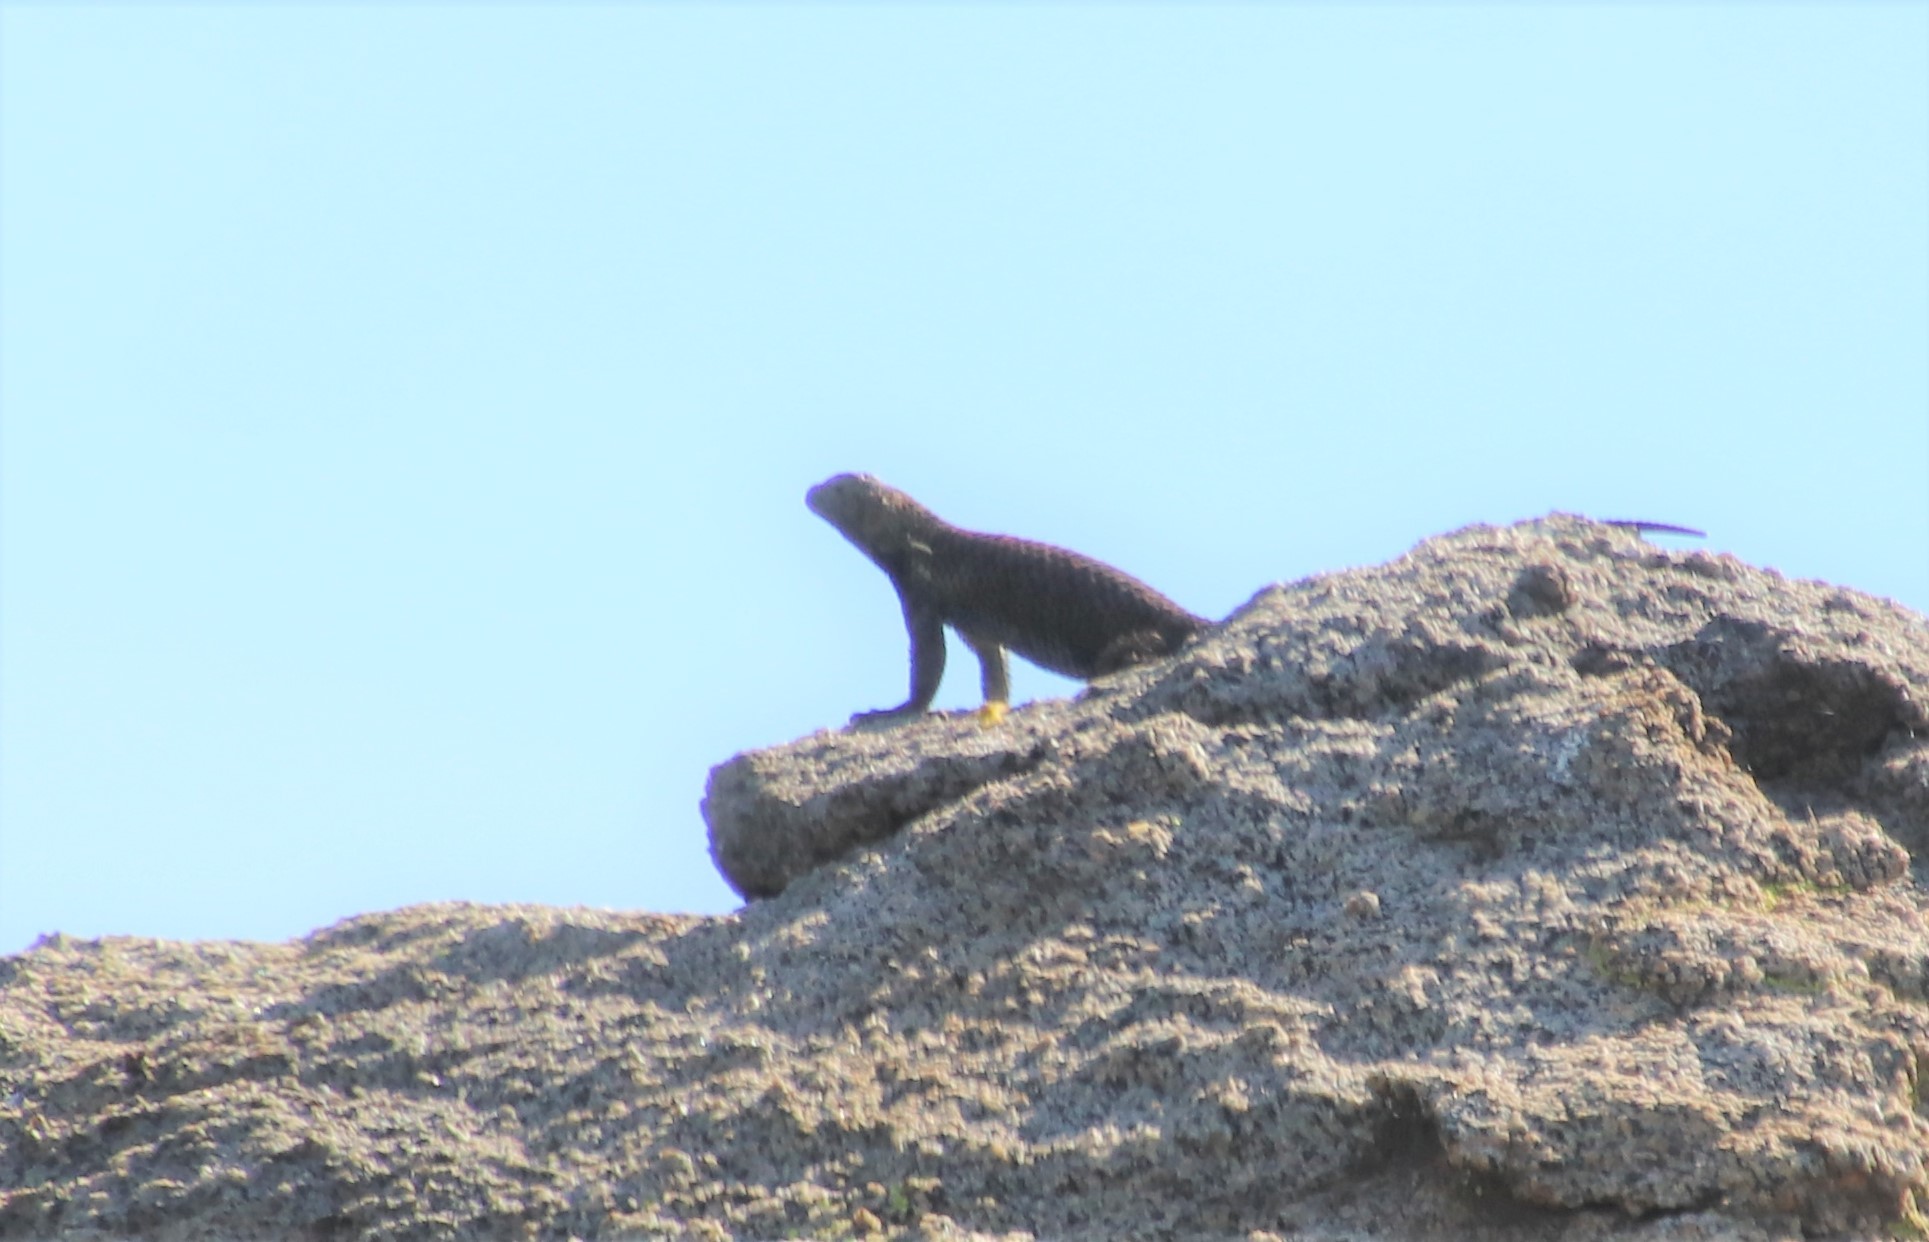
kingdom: Animalia
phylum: Chordata
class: Squamata
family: Phrynosomatidae
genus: Sceloporus
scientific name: Sceloporus orcutti
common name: Granite spiny lizard
